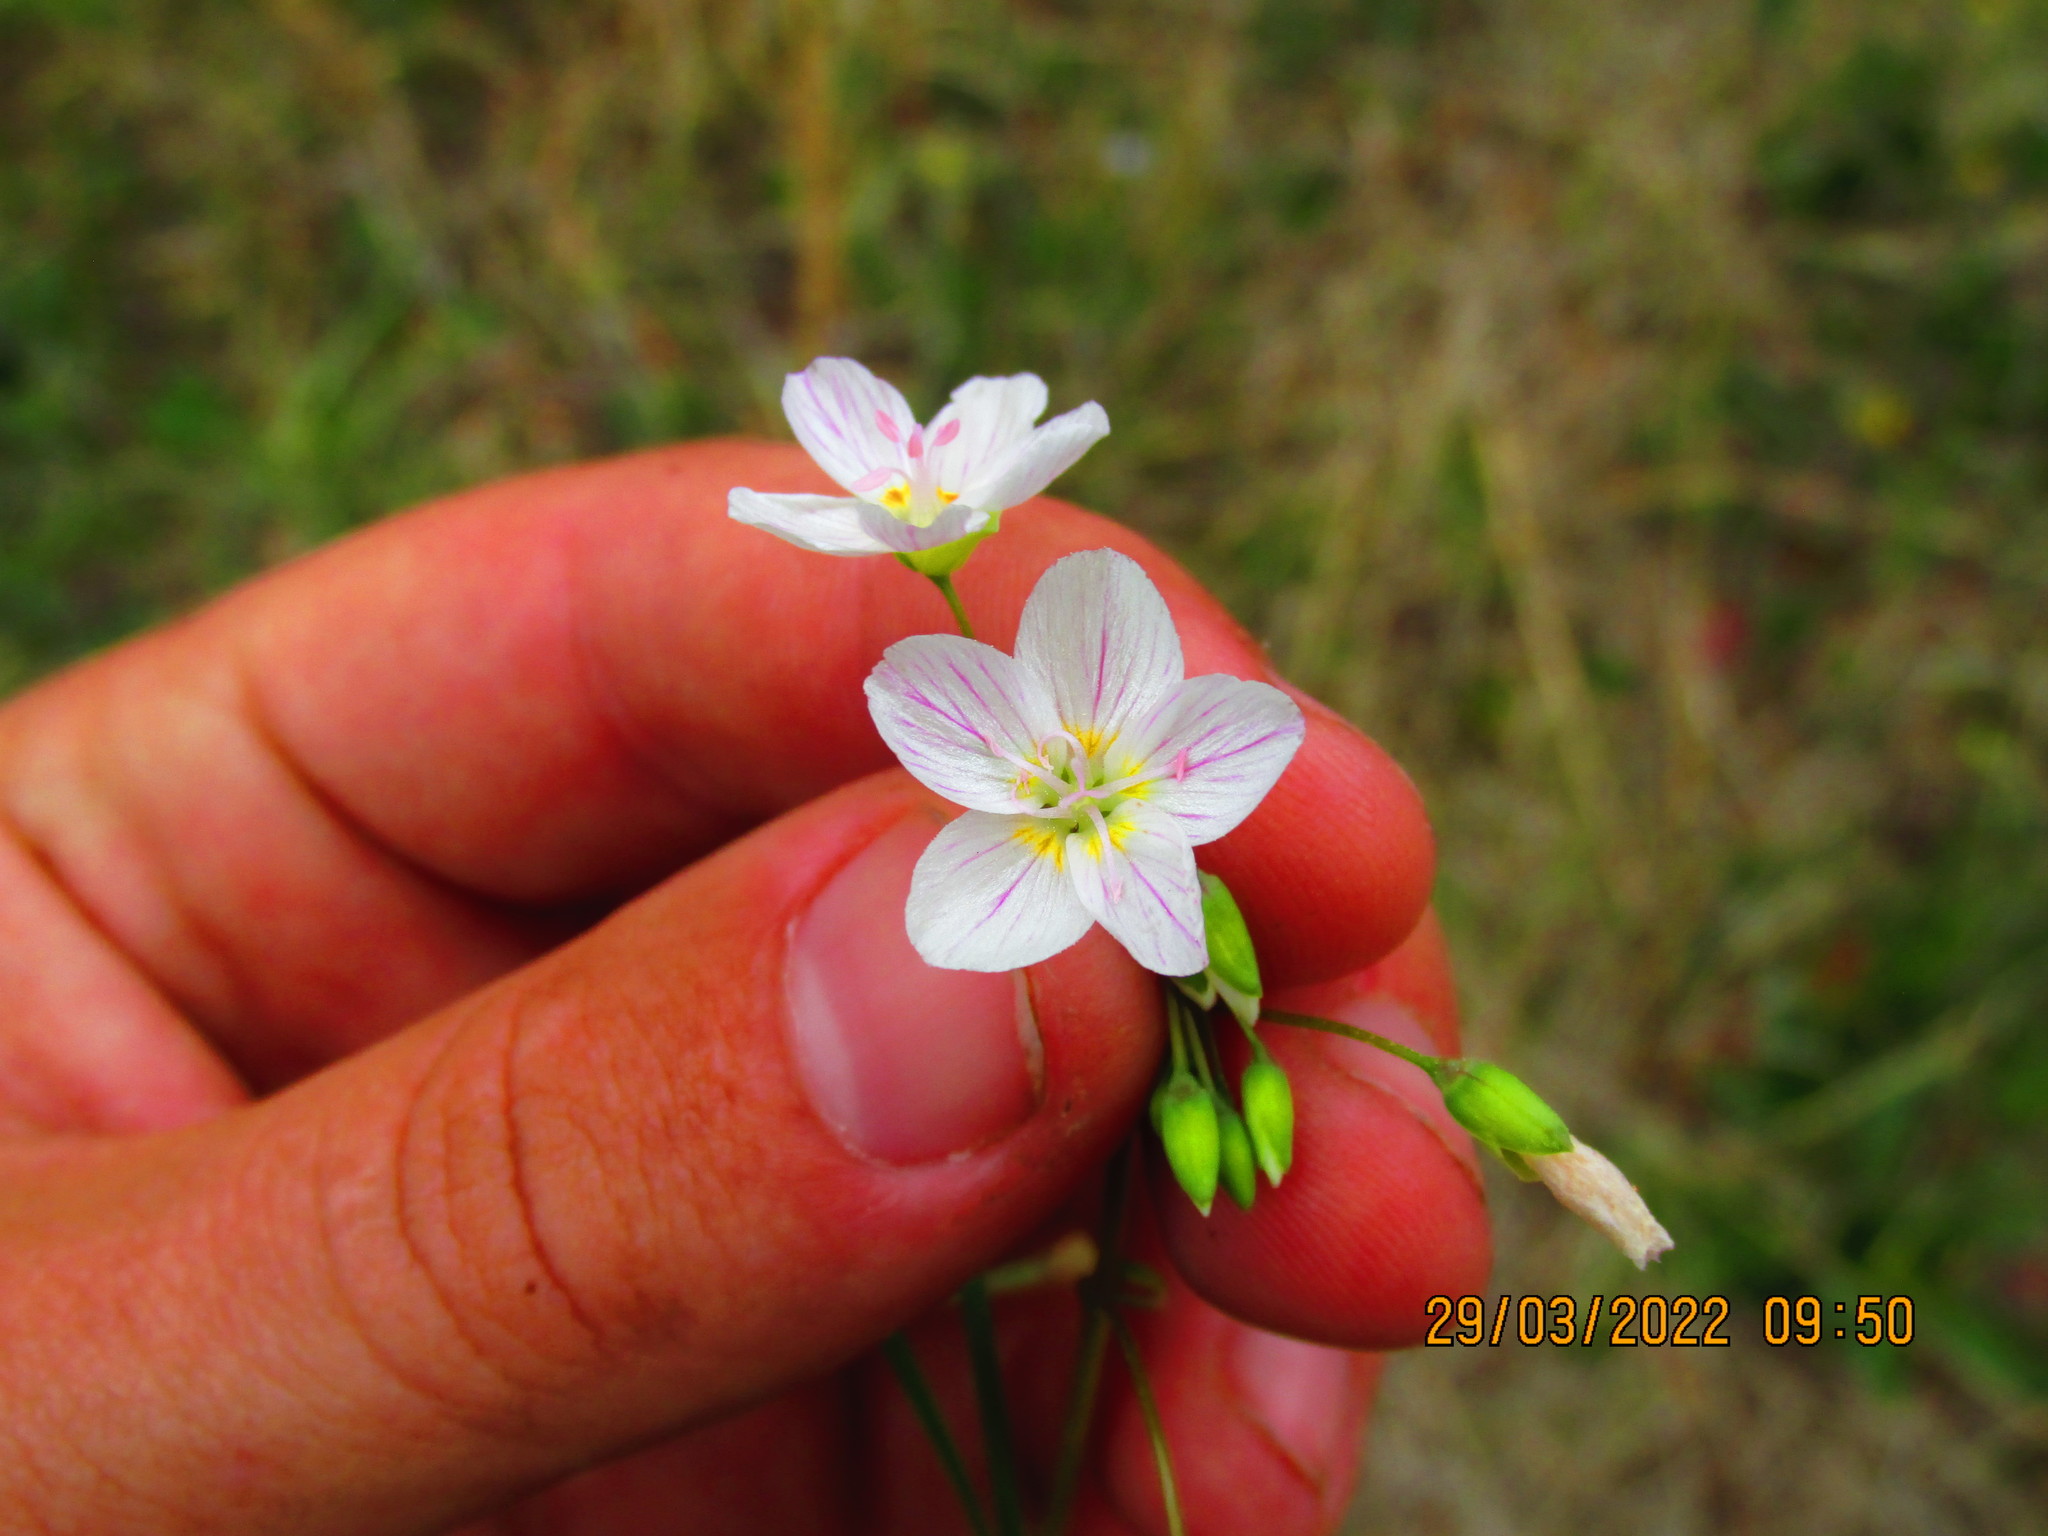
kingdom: Plantae
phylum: Tracheophyta
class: Magnoliopsida
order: Caryophyllales
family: Montiaceae
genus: Claytonia
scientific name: Claytonia virginica
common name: Virginia springbeauty
